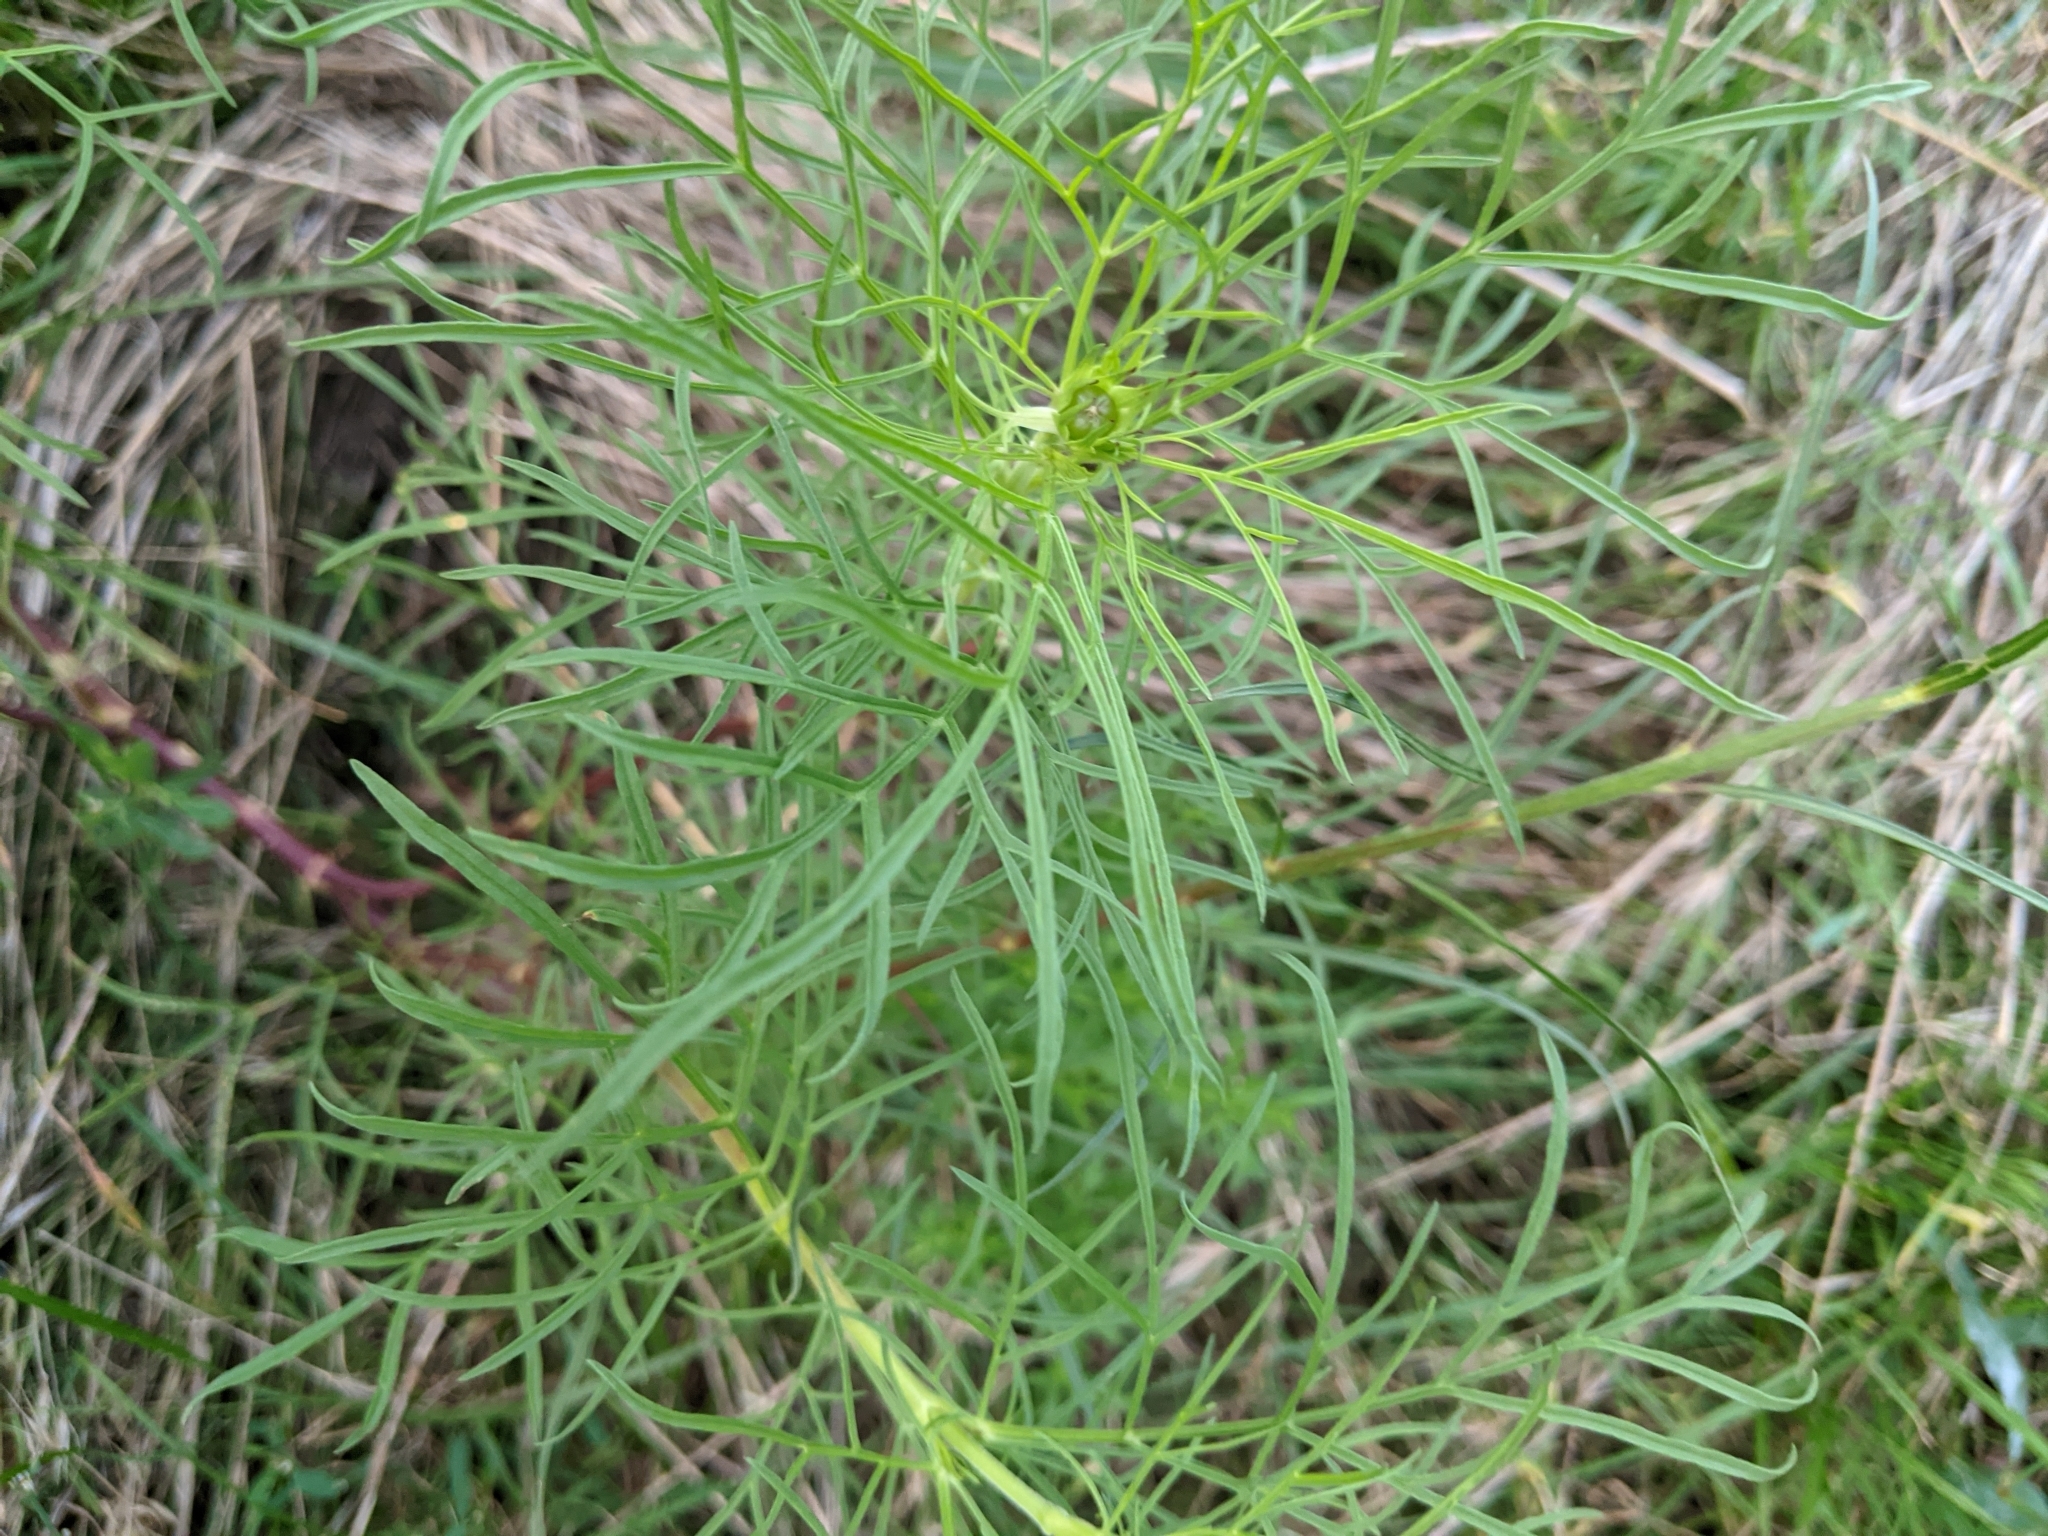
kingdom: Plantae
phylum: Tracheophyta
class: Magnoliopsida
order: Asterales
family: Asteraceae
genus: Cosmos
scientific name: Cosmos bipinnatus
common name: Garden cosmos
